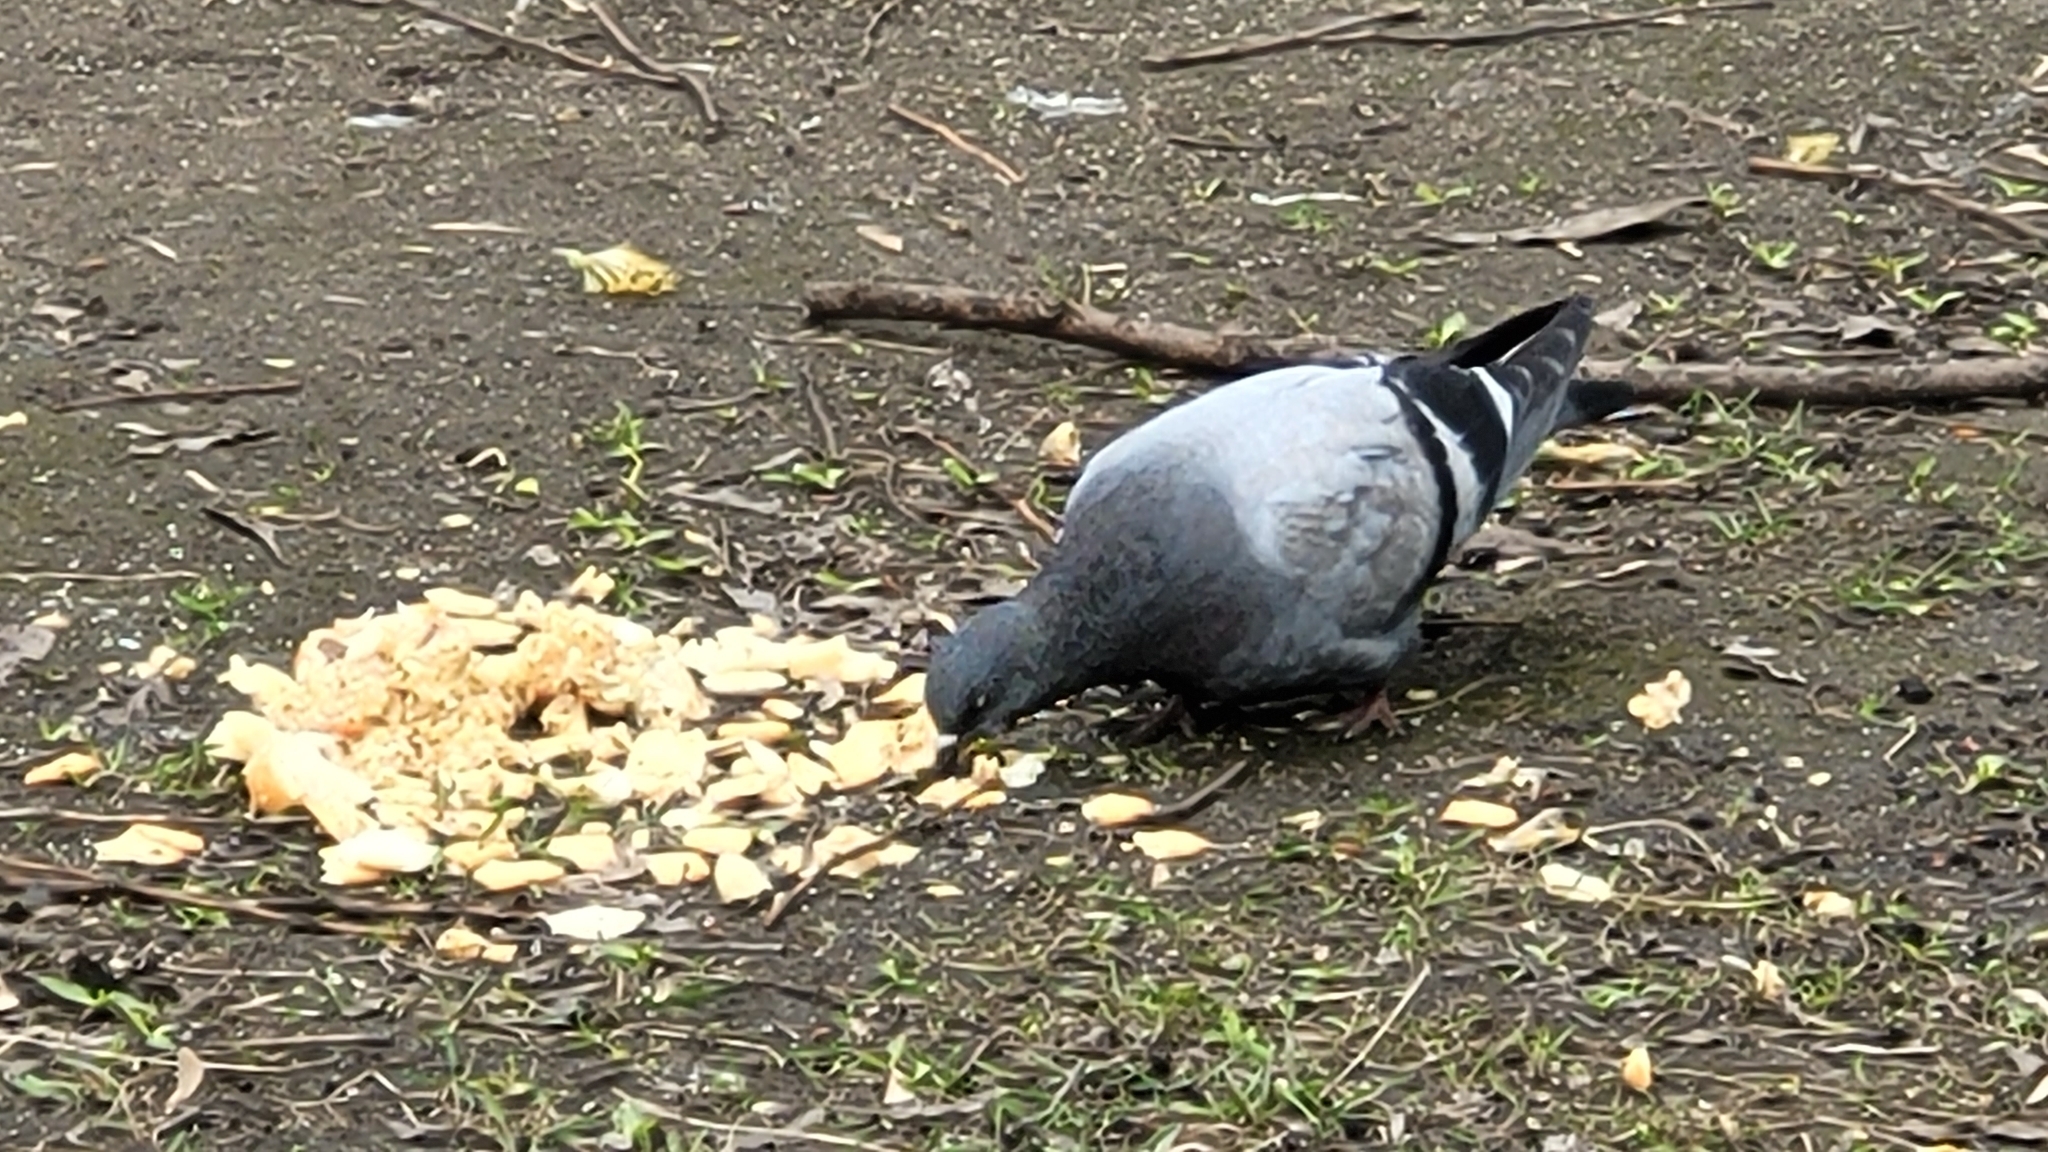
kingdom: Animalia
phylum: Chordata
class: Aves
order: Columbiformes
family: Columbidae
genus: Columba
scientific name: Columba livia
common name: Rock pigeon
